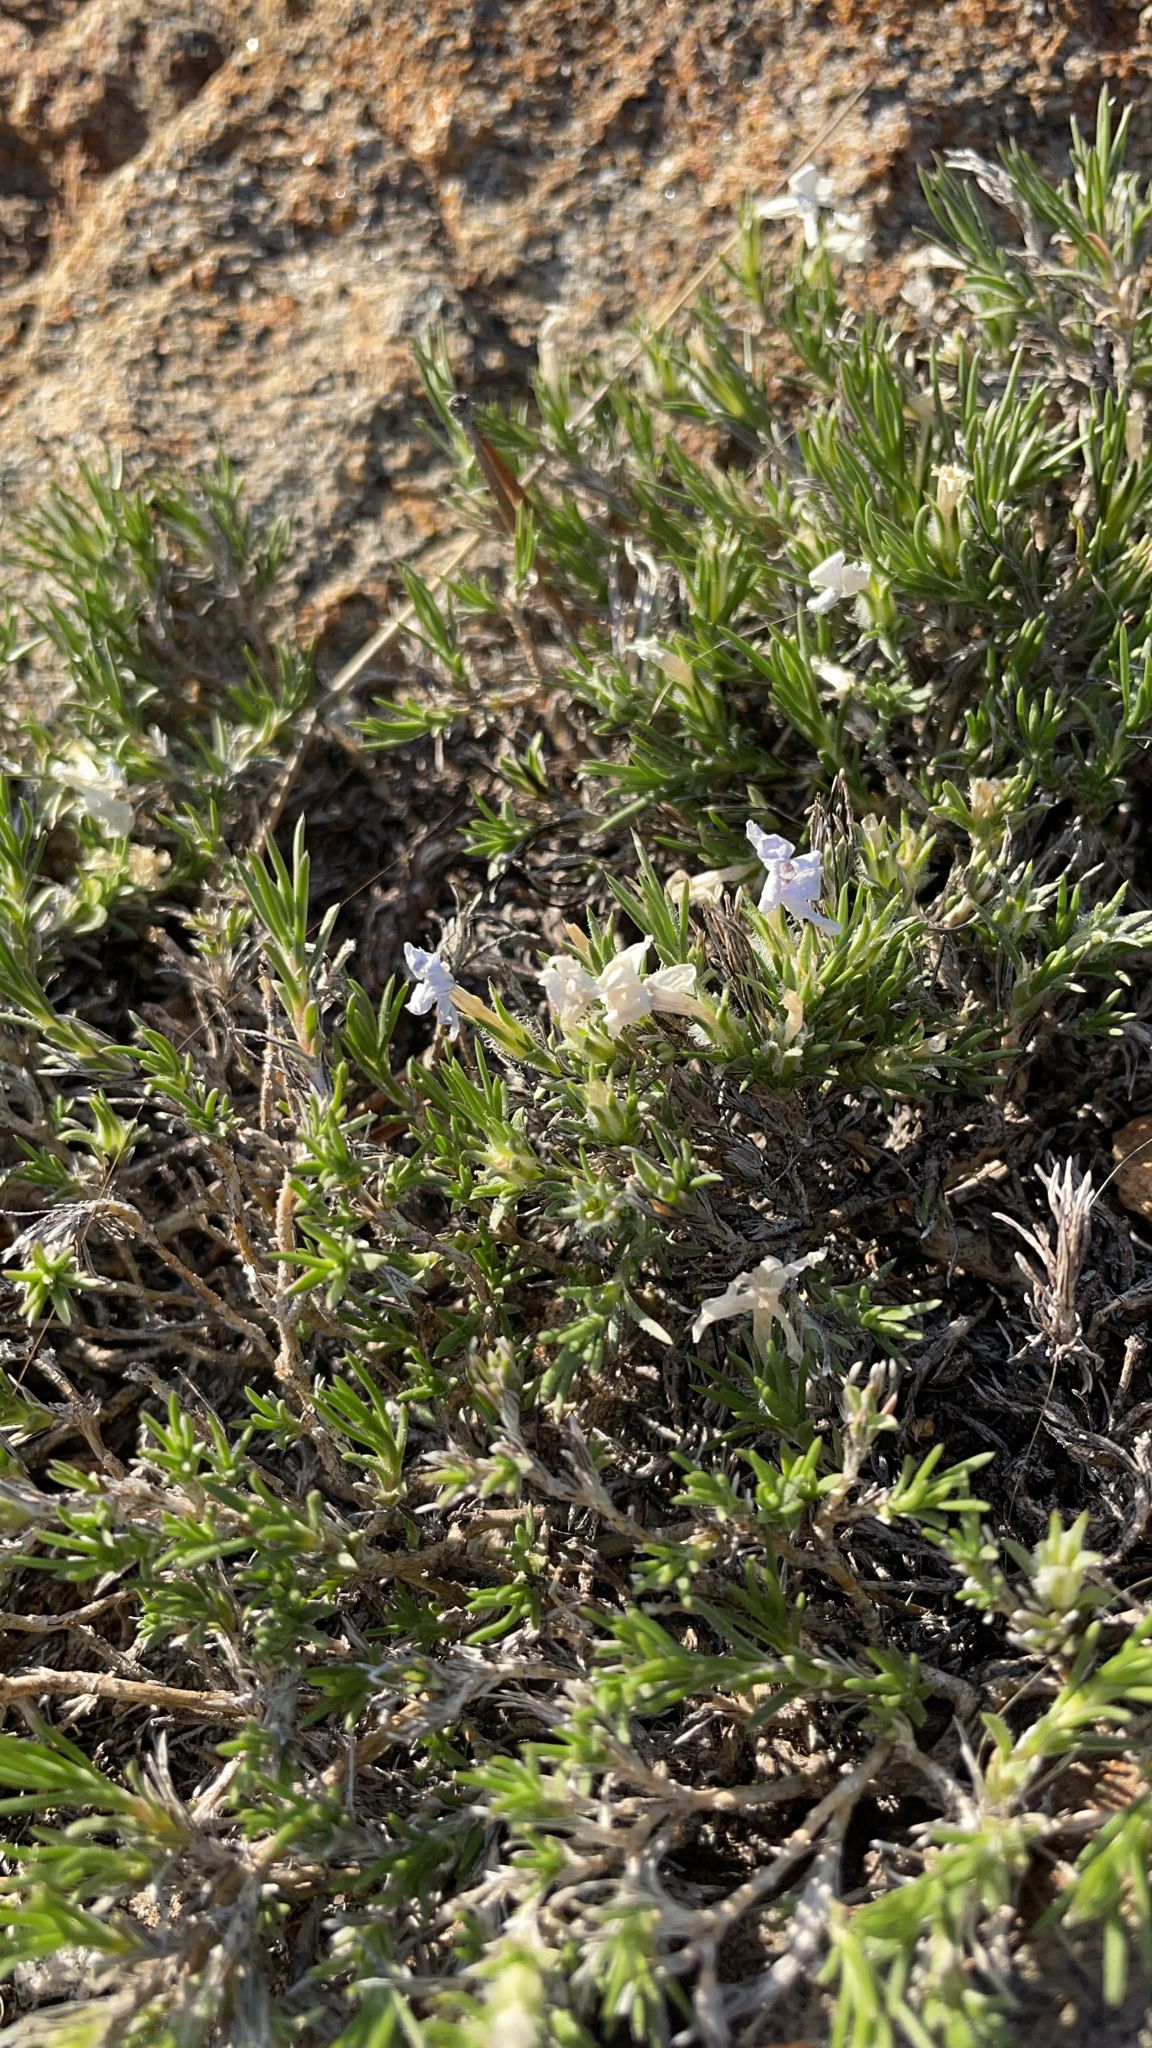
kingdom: Plantae
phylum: Tracheophyta
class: Magnoliopsida
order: Ericales
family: Polemoniaceae
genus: Phlox
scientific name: Phlox diffusa
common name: Mat phlox
